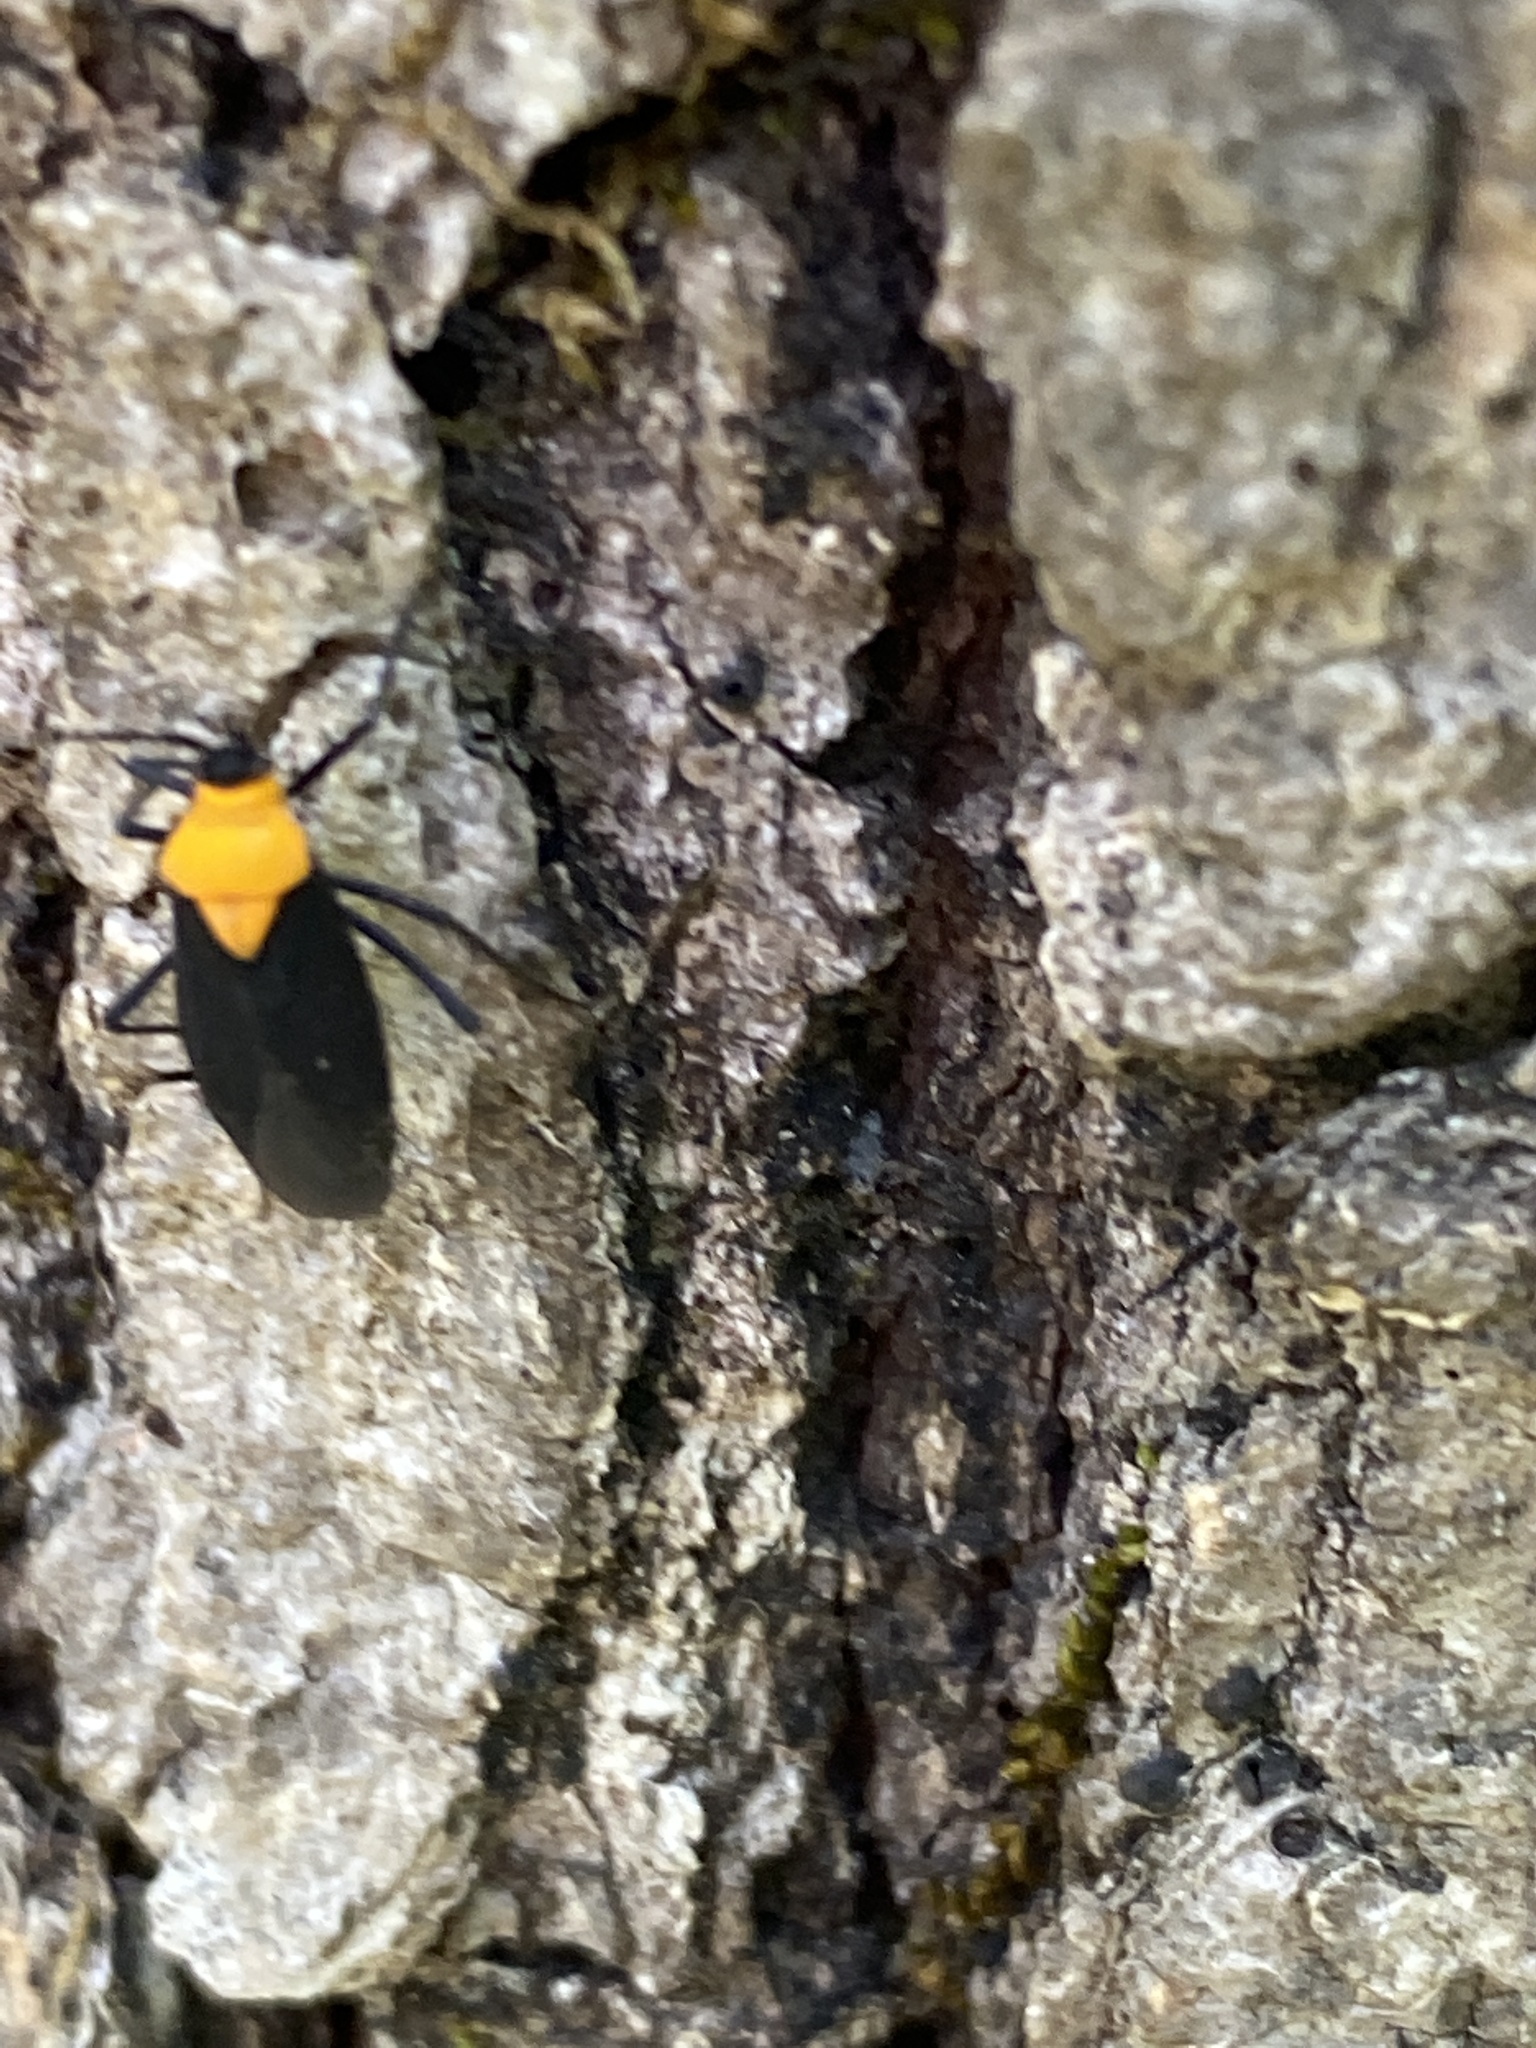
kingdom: Animalia
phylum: Arthropoda
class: Insecta
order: Hemiptera
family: Miridae
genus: Prepops
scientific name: Prepops insitivus
